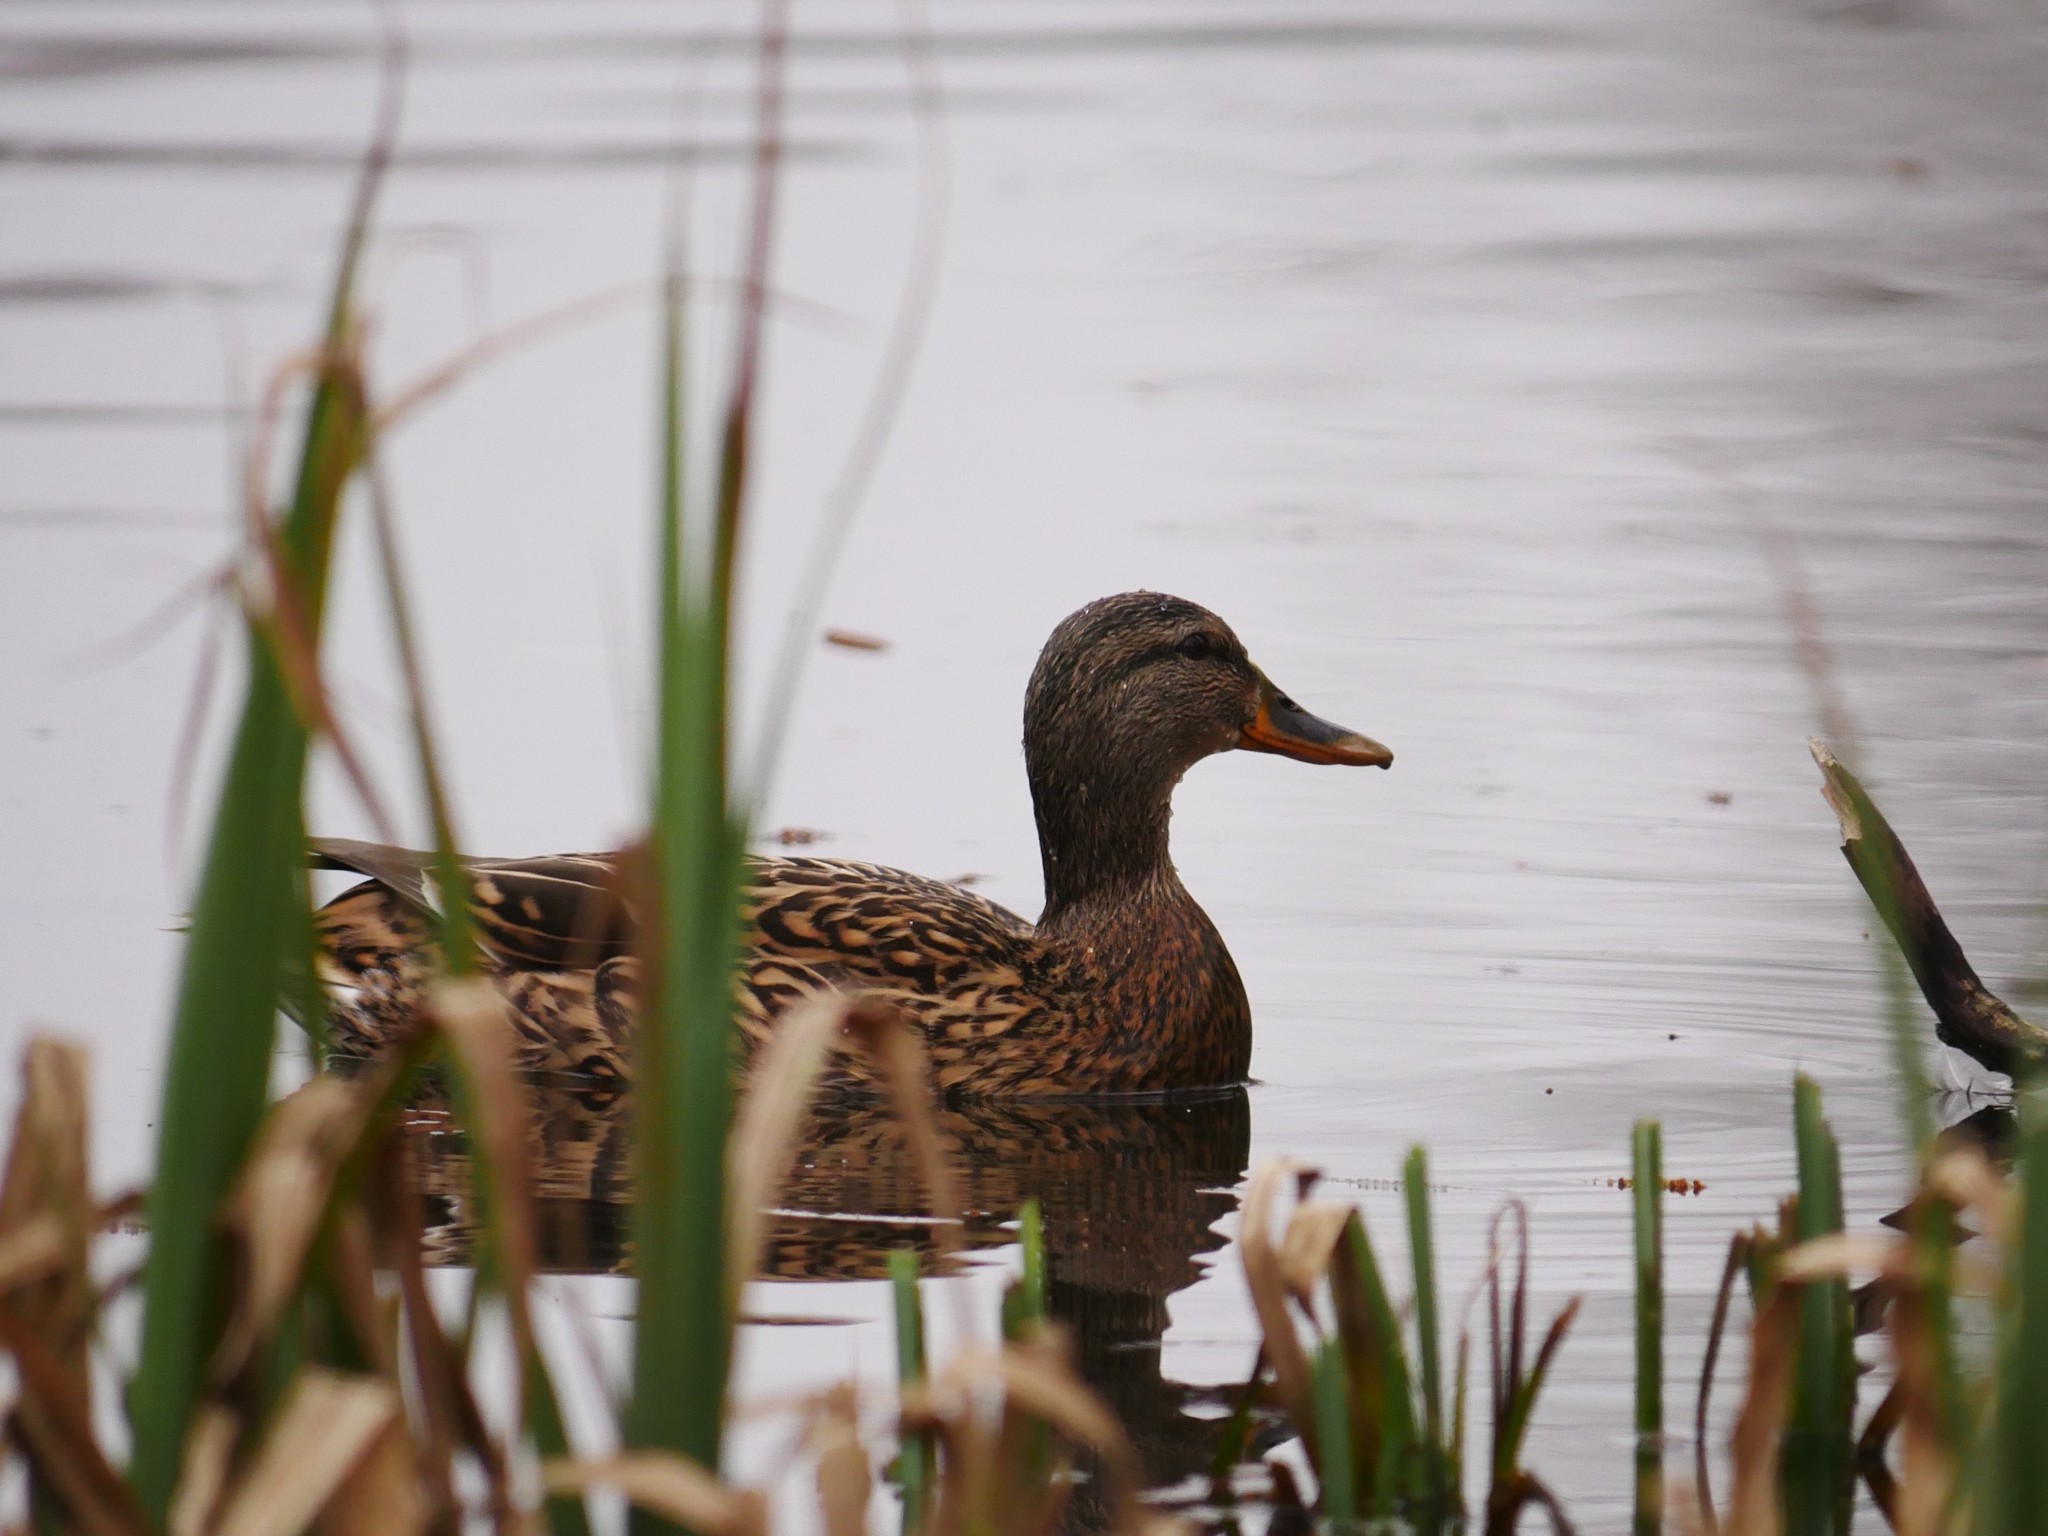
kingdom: Animalia
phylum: Chordata
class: Aves
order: Anseriformes
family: Anatidae
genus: Anas
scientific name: Anas platyrhynchos
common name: Mallard
